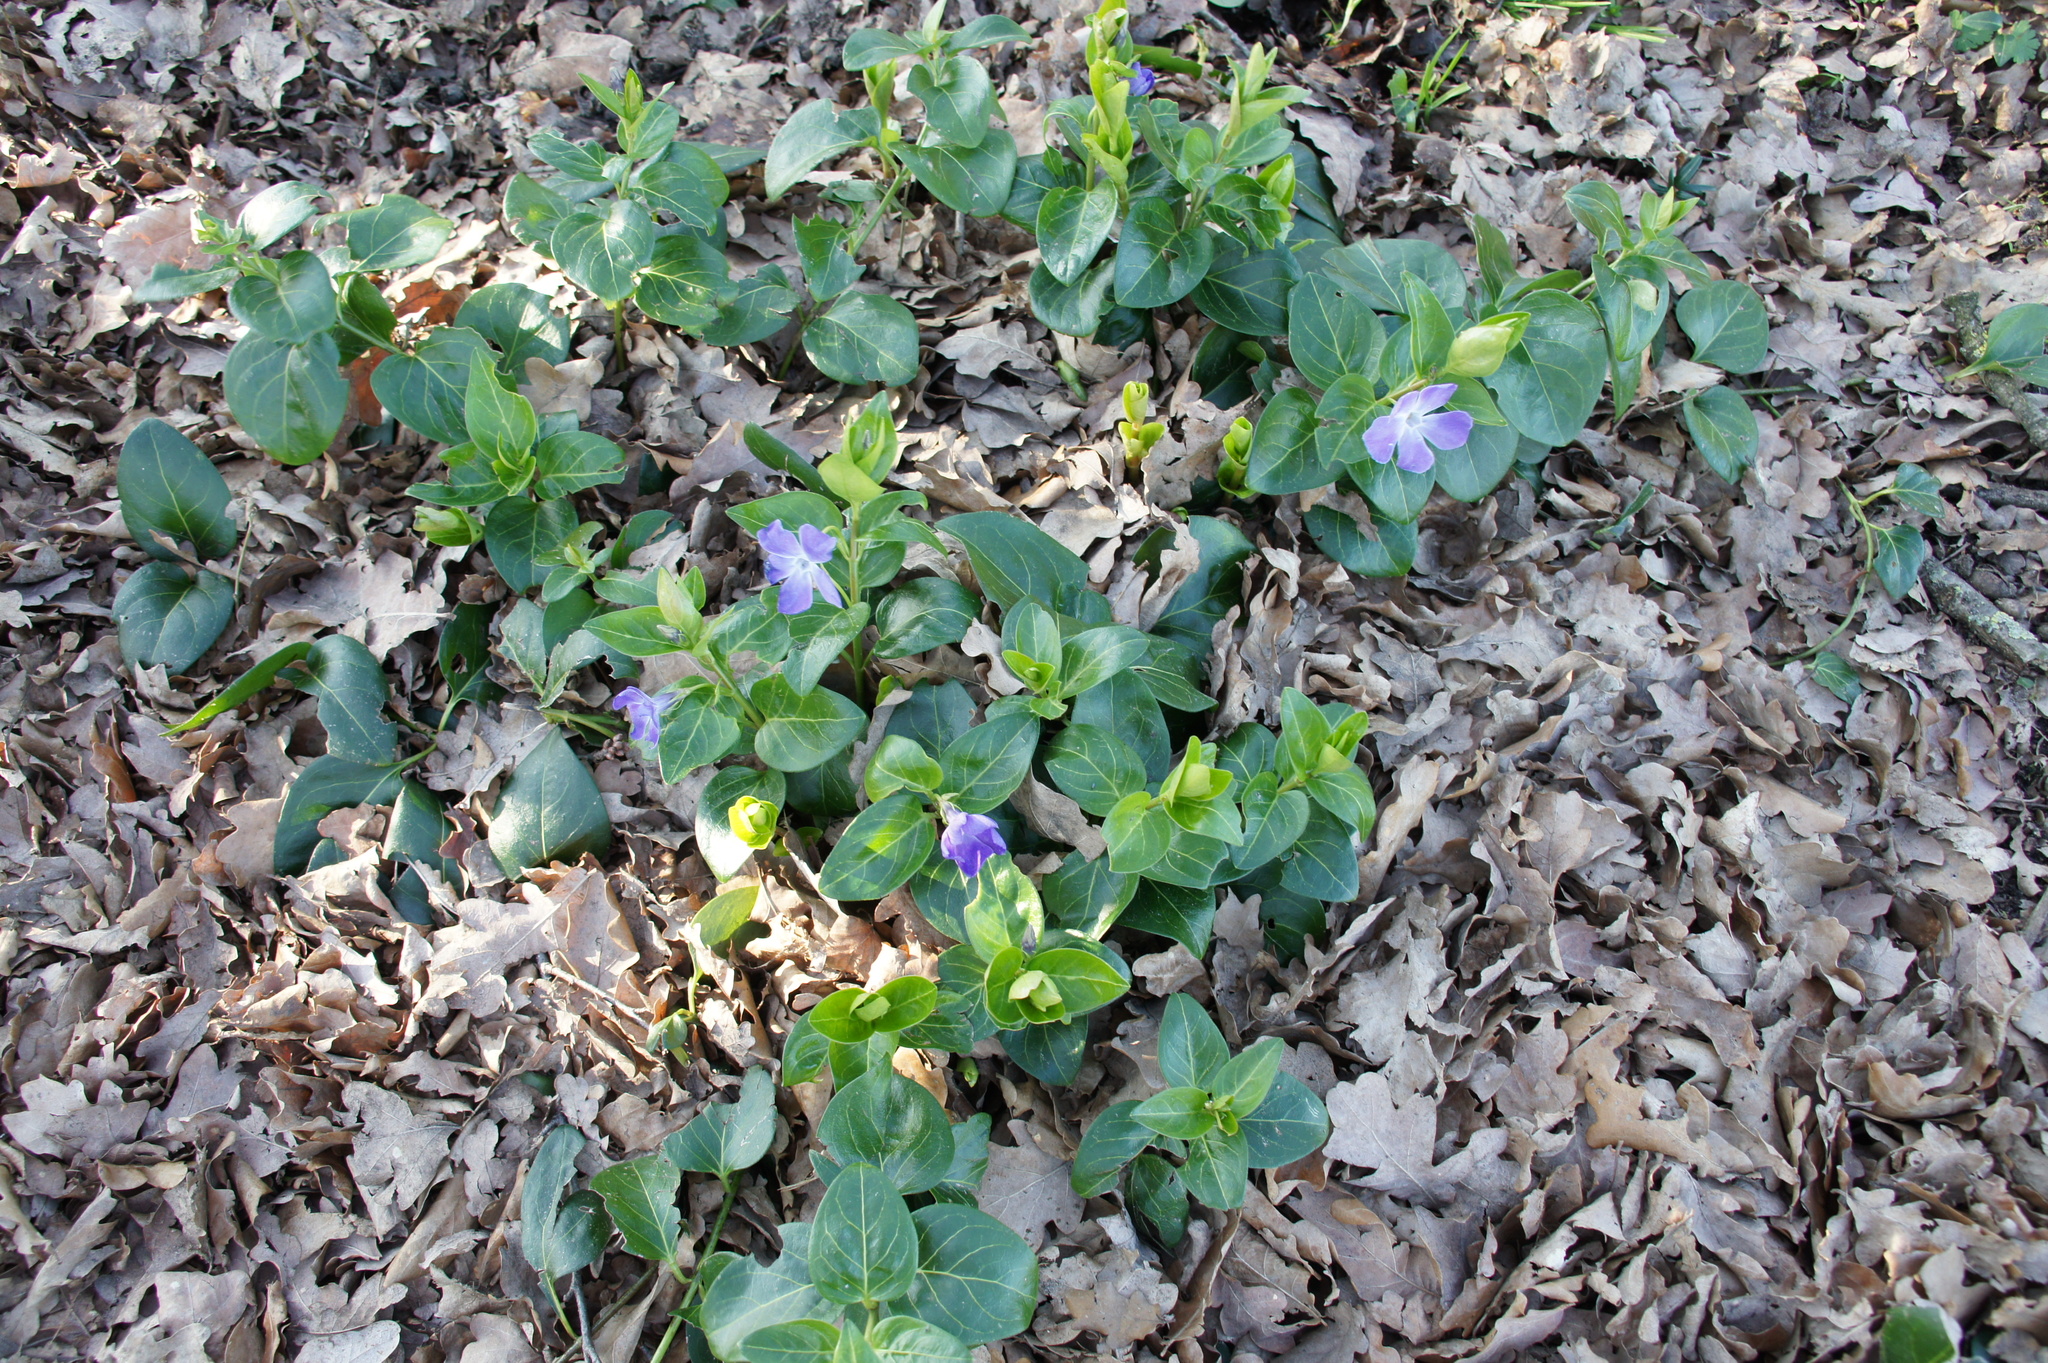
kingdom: Plantae
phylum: Tracheophyta
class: Magnoliopsida
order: Gentianales
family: Apocynaceae
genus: Vinca
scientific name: Vinca major
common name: Greater periwinkle
